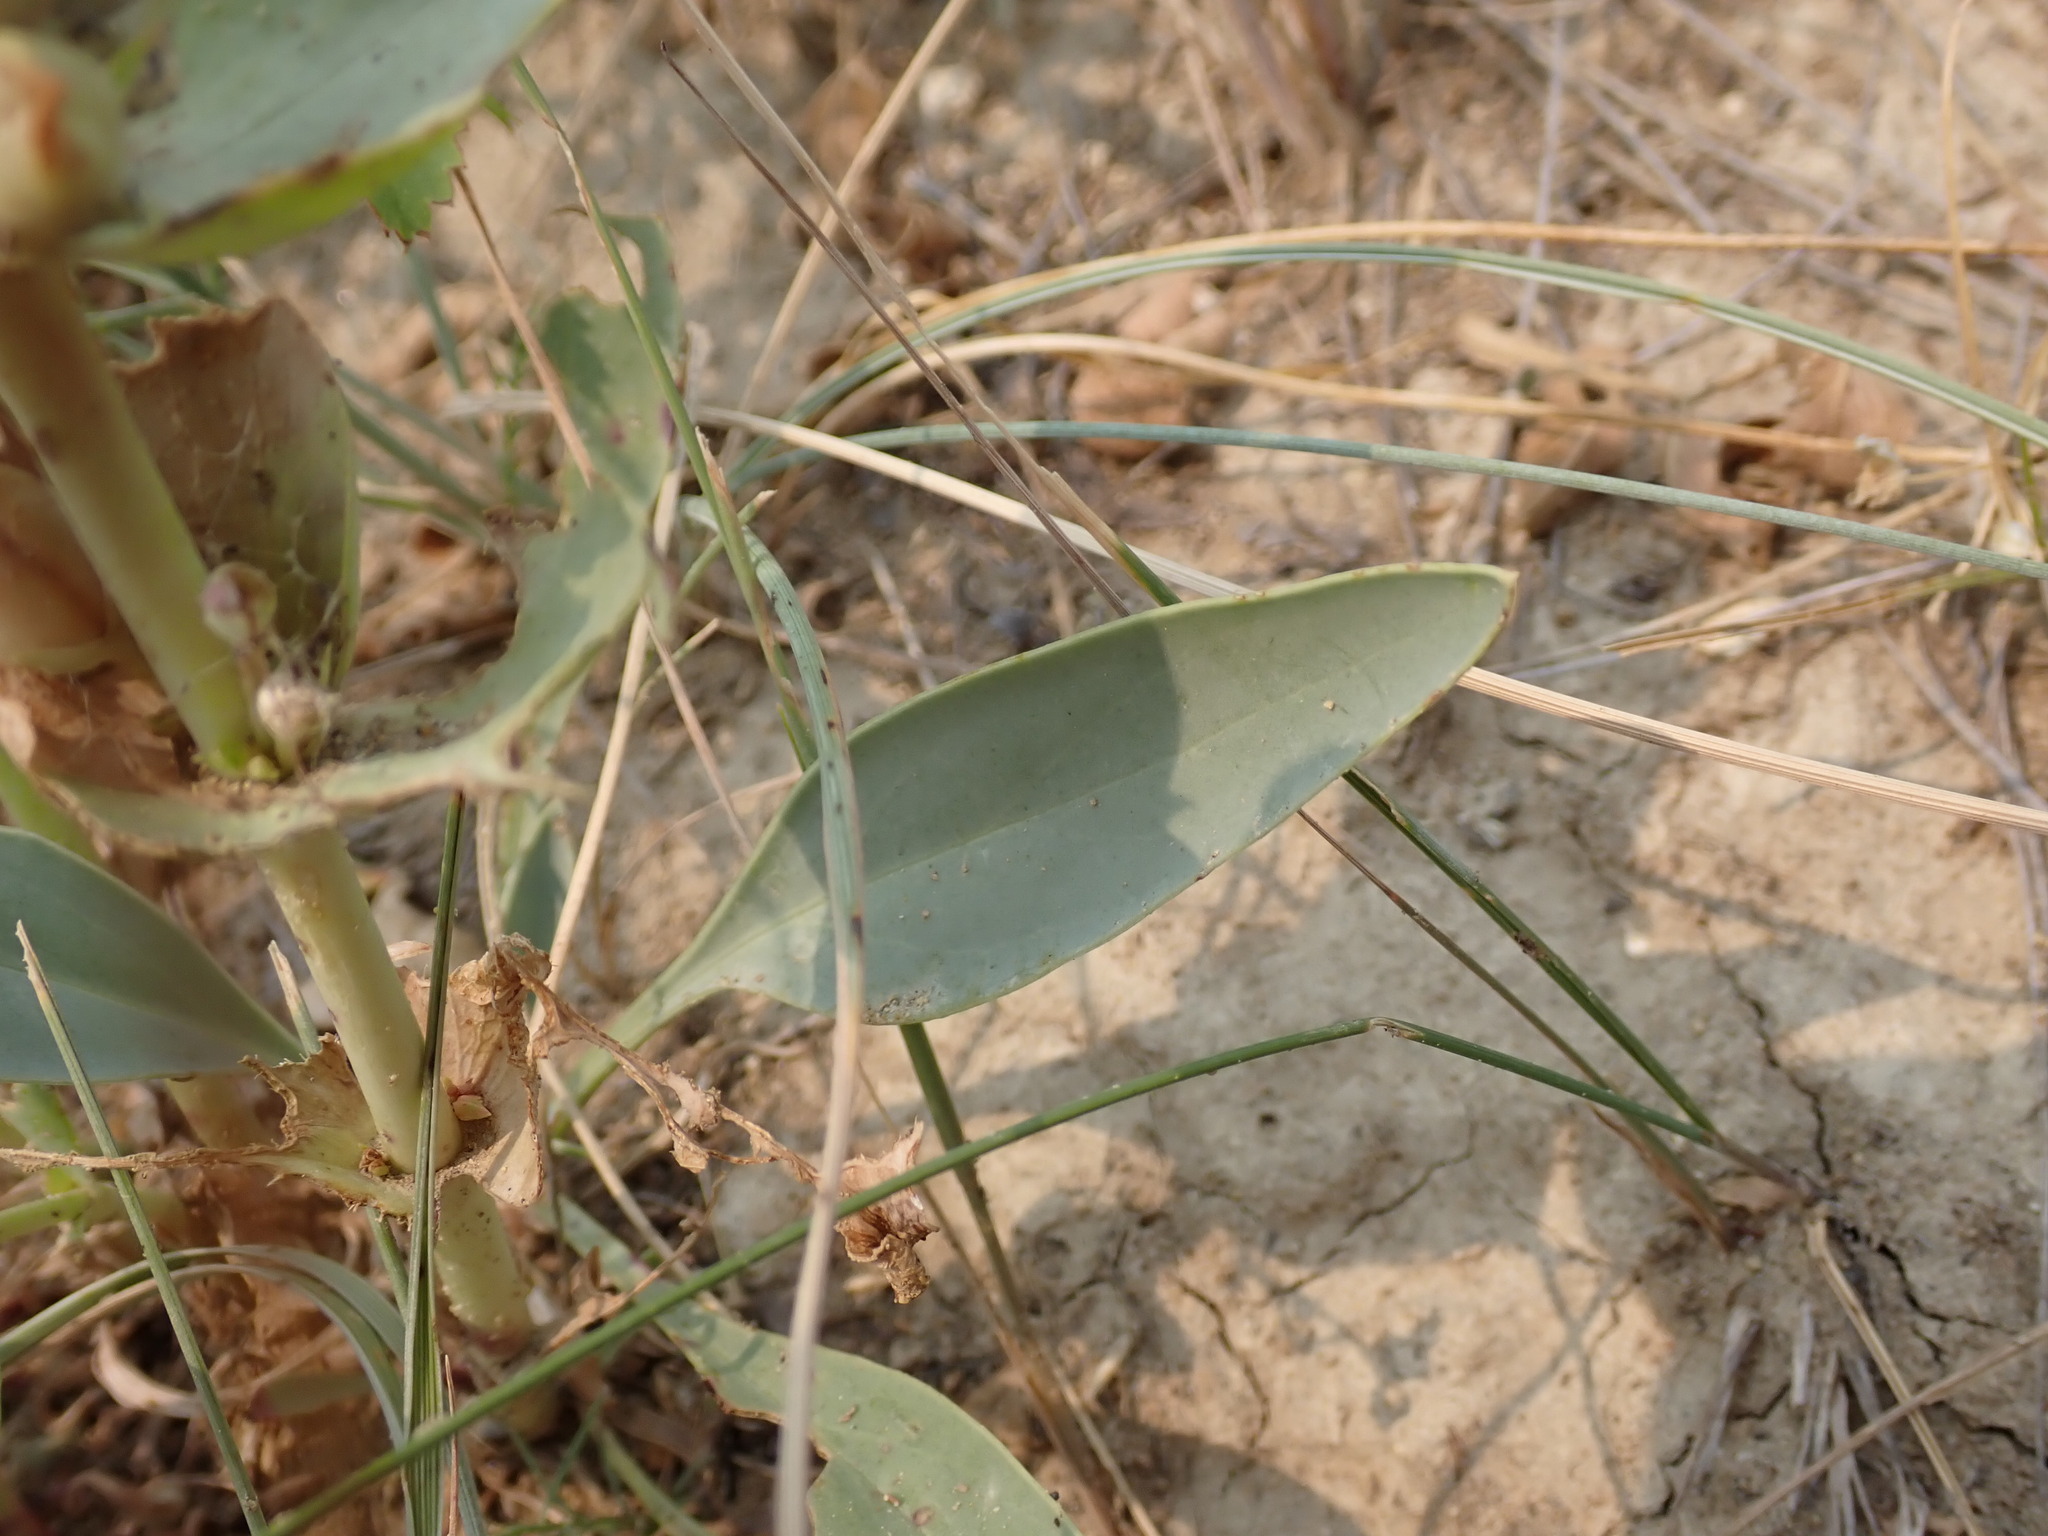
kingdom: Plantae
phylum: Tracheophyta
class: Magnoliopsida
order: Lamiales
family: Plantaginaceae
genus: Penstemon
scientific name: Penstemon nitidus
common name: Shining penstemon
